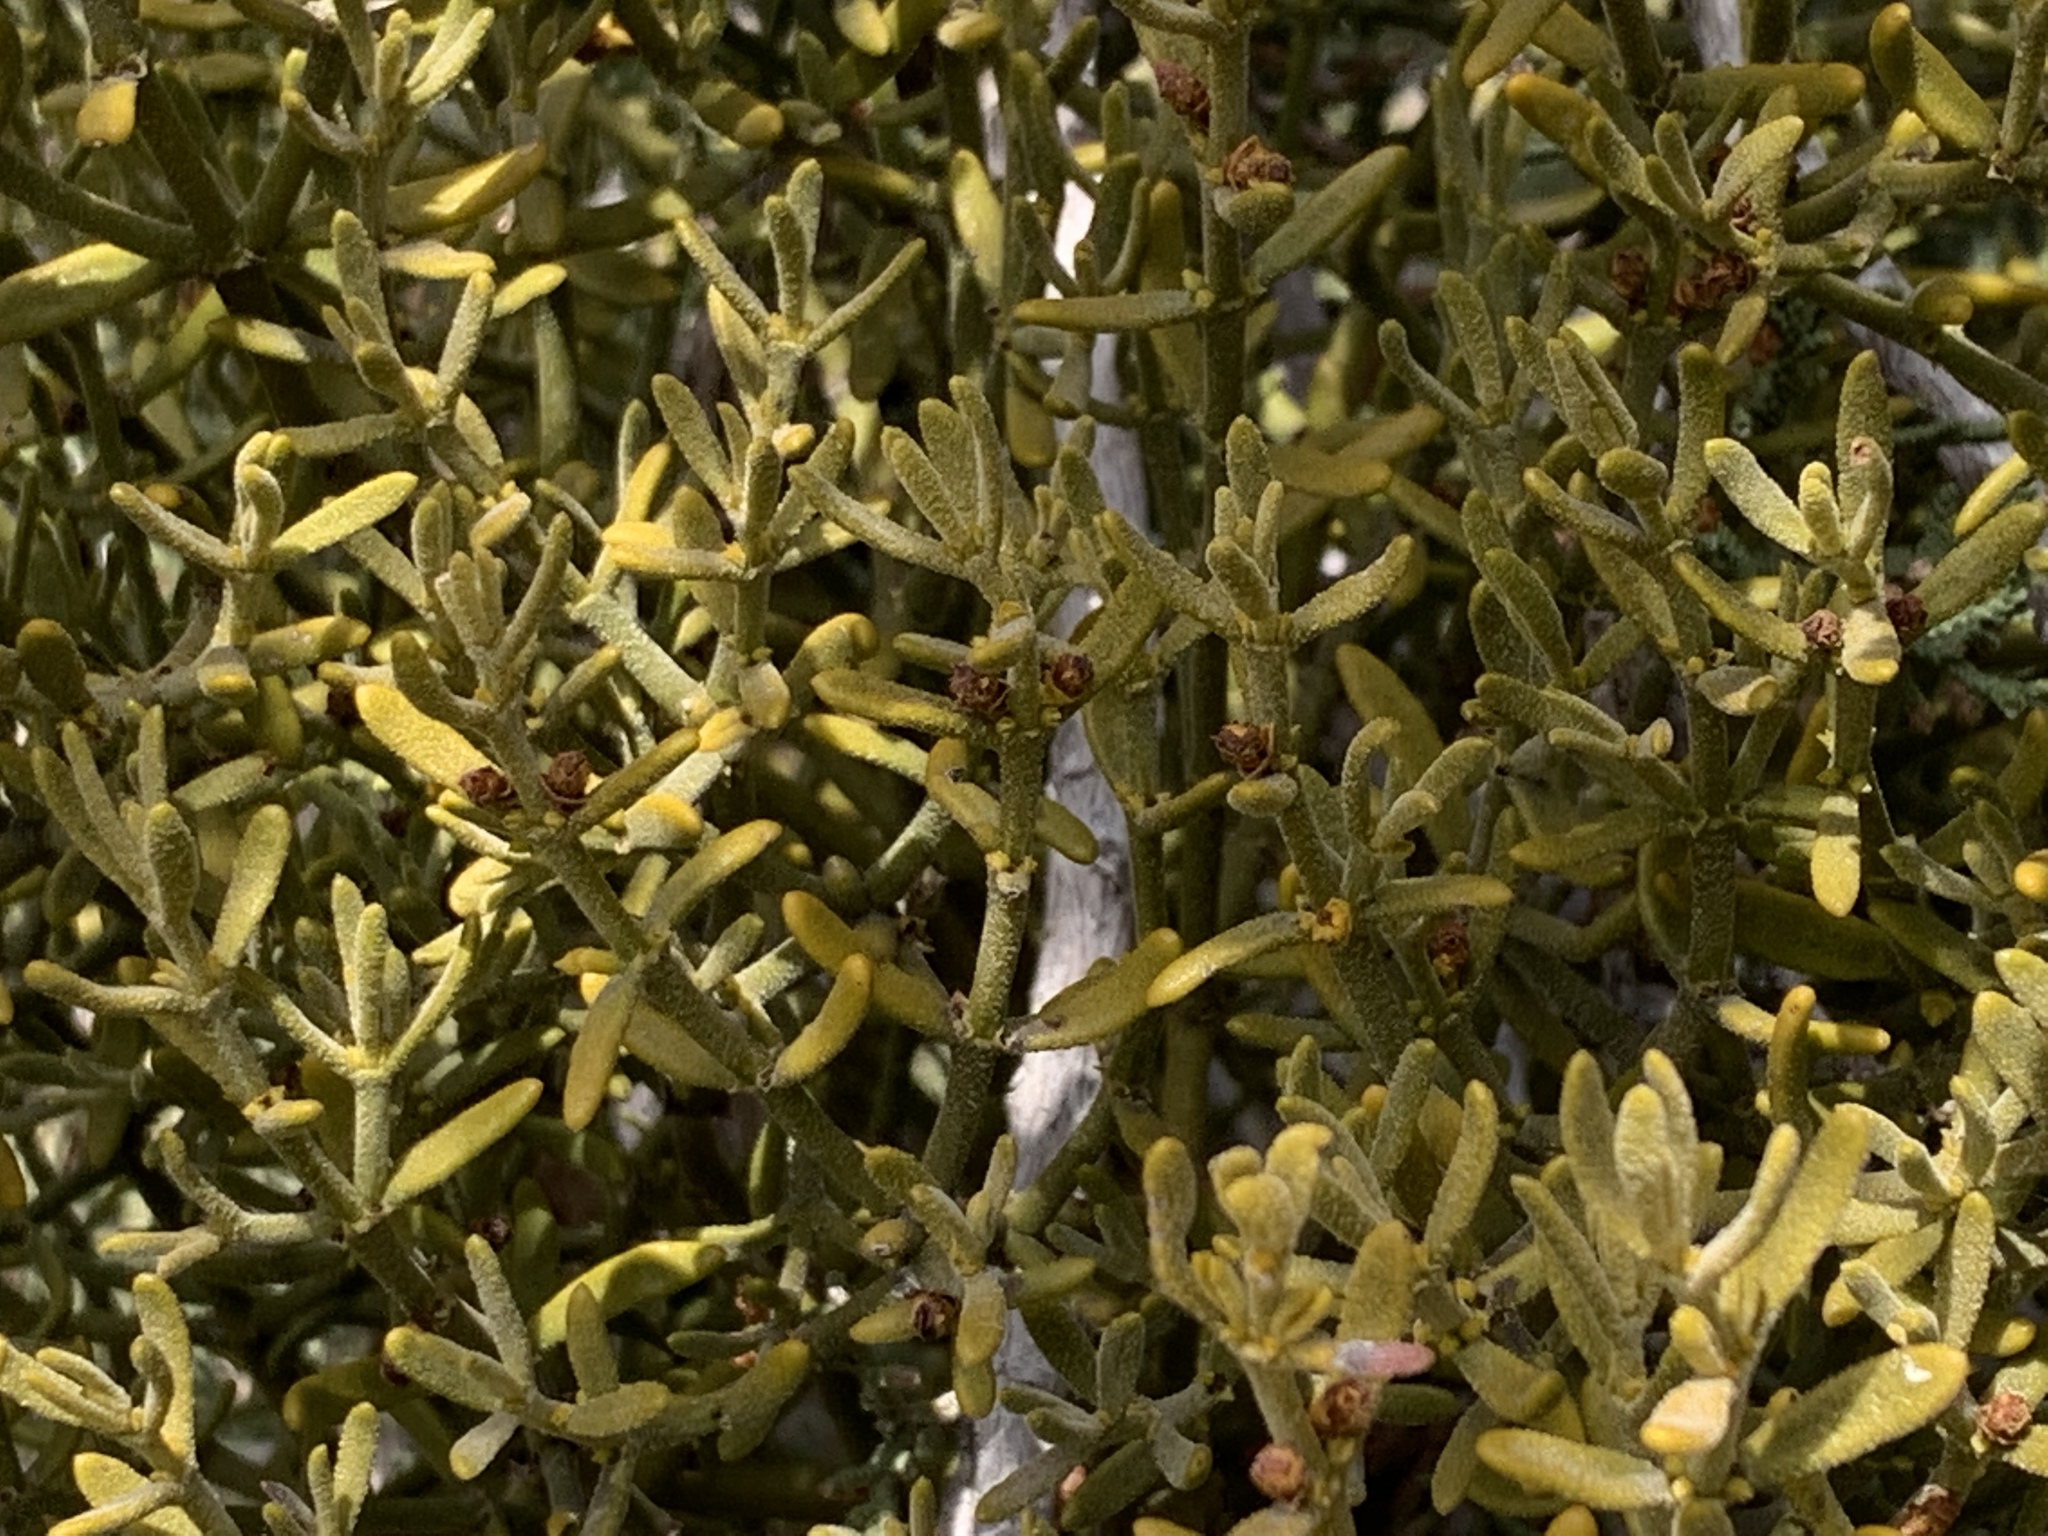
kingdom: Plantae
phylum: Tracheophyta
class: Magnoliopsida
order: Santalales
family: Viscaceae
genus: Phoradendron
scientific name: Phoradendron capitellatum
